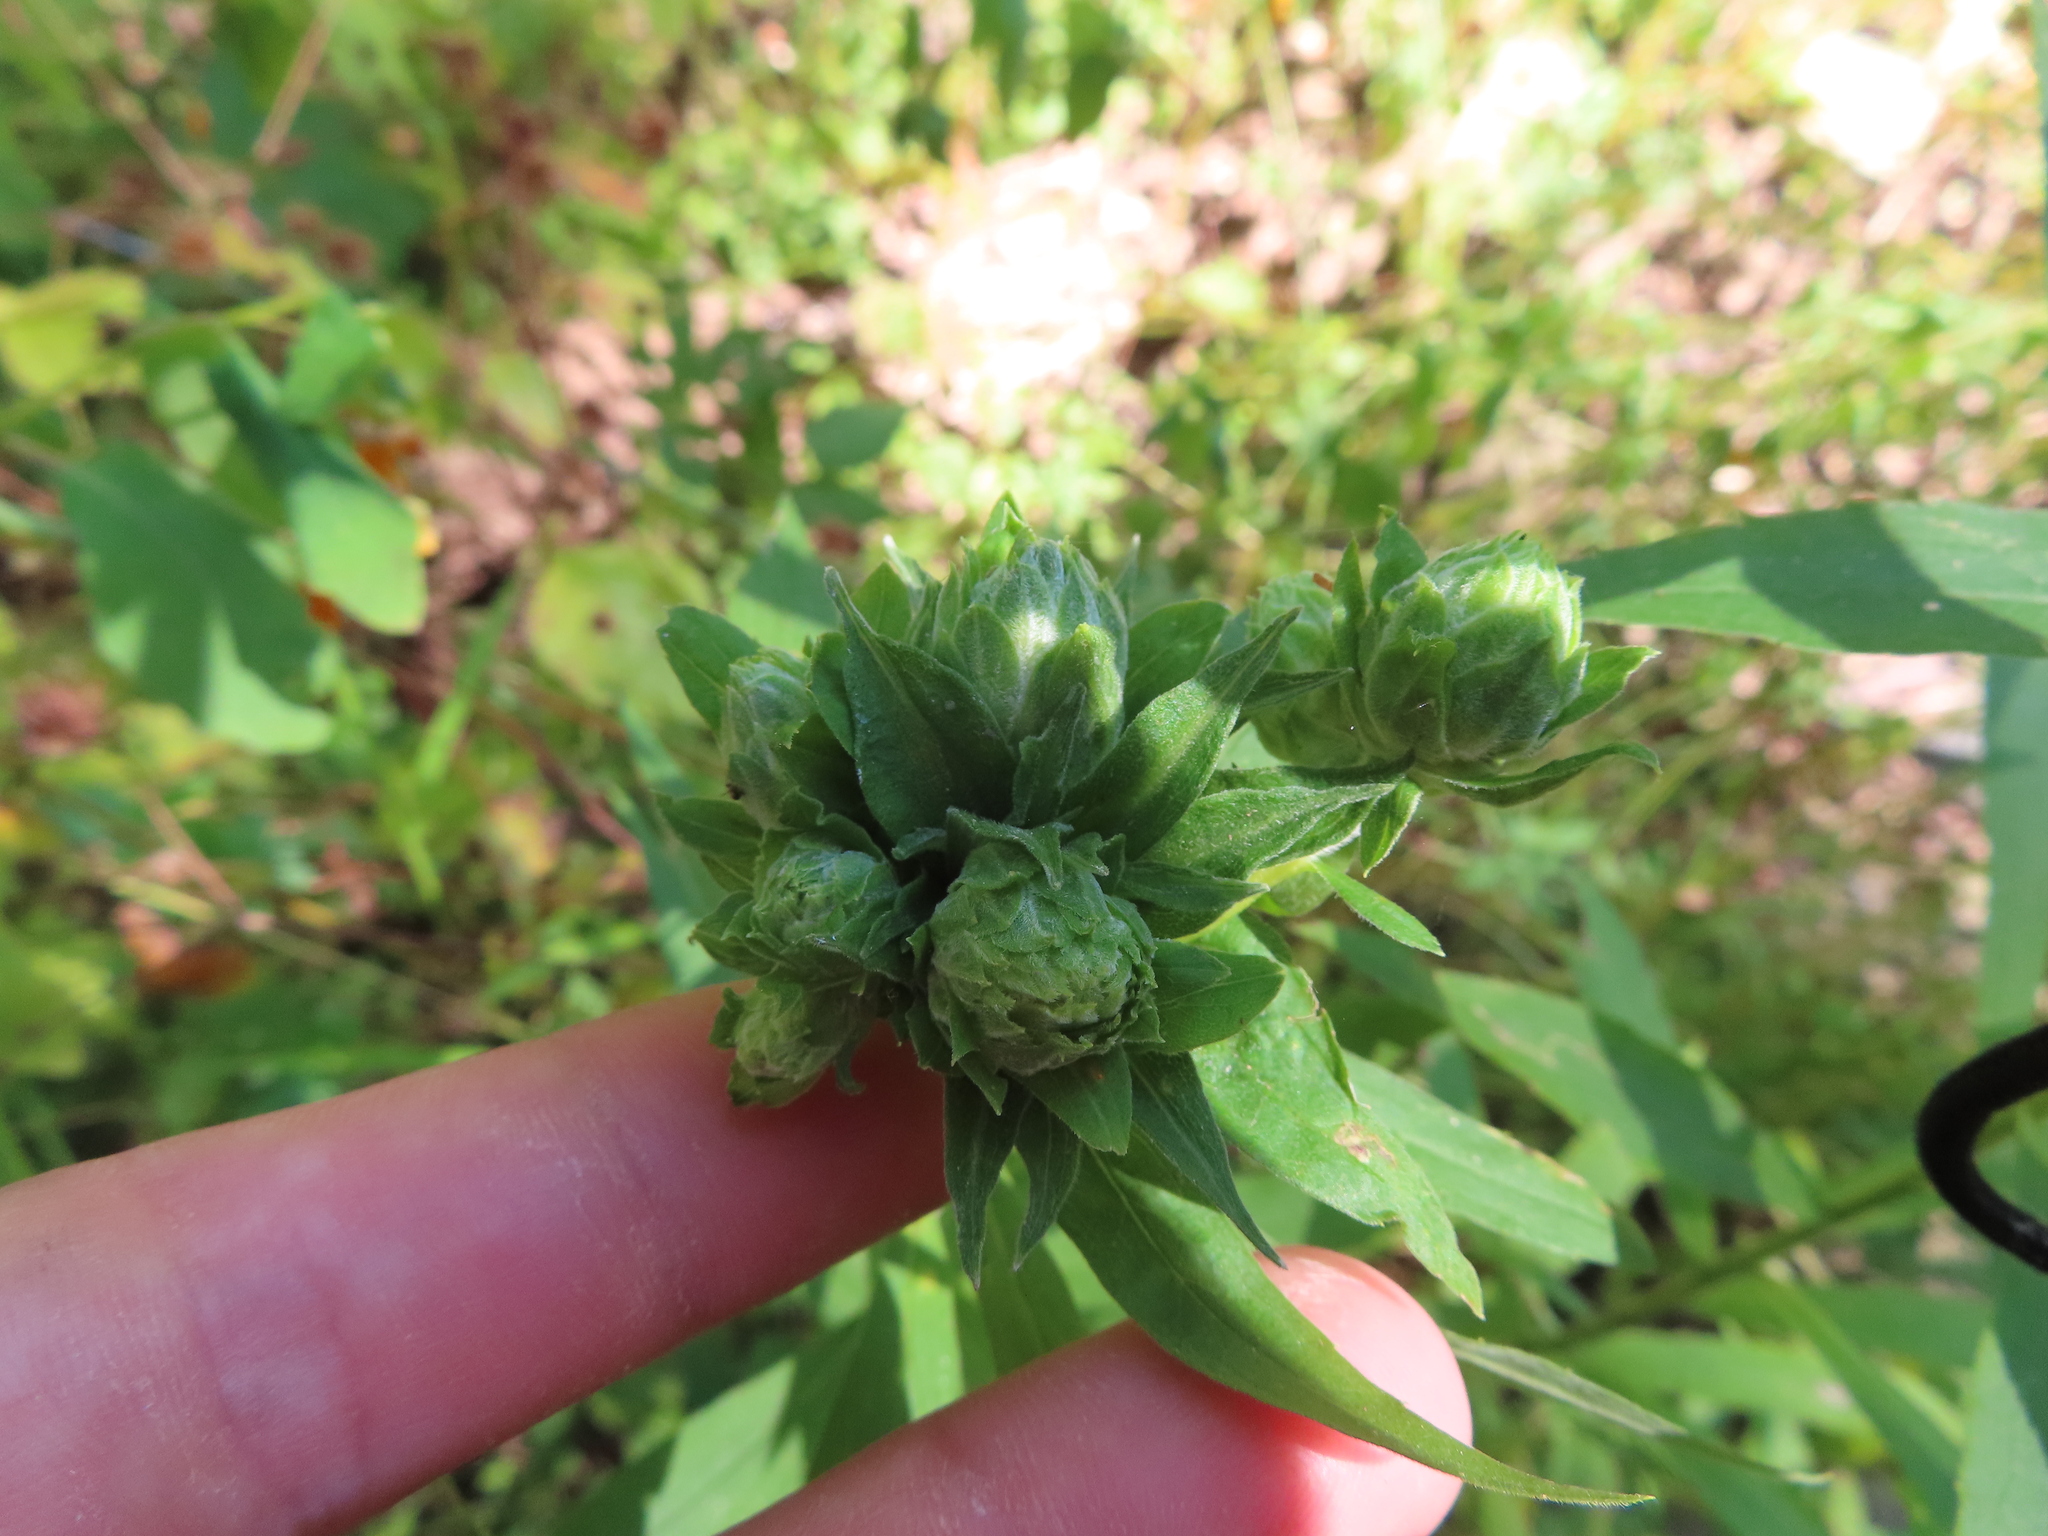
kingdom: Animalia
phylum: Arthropoda
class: Insecta
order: Diptera
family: Tephritidae
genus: Procecidochares
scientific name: Procecidochares atra
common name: Goldenrod brussels sprout gall fly
